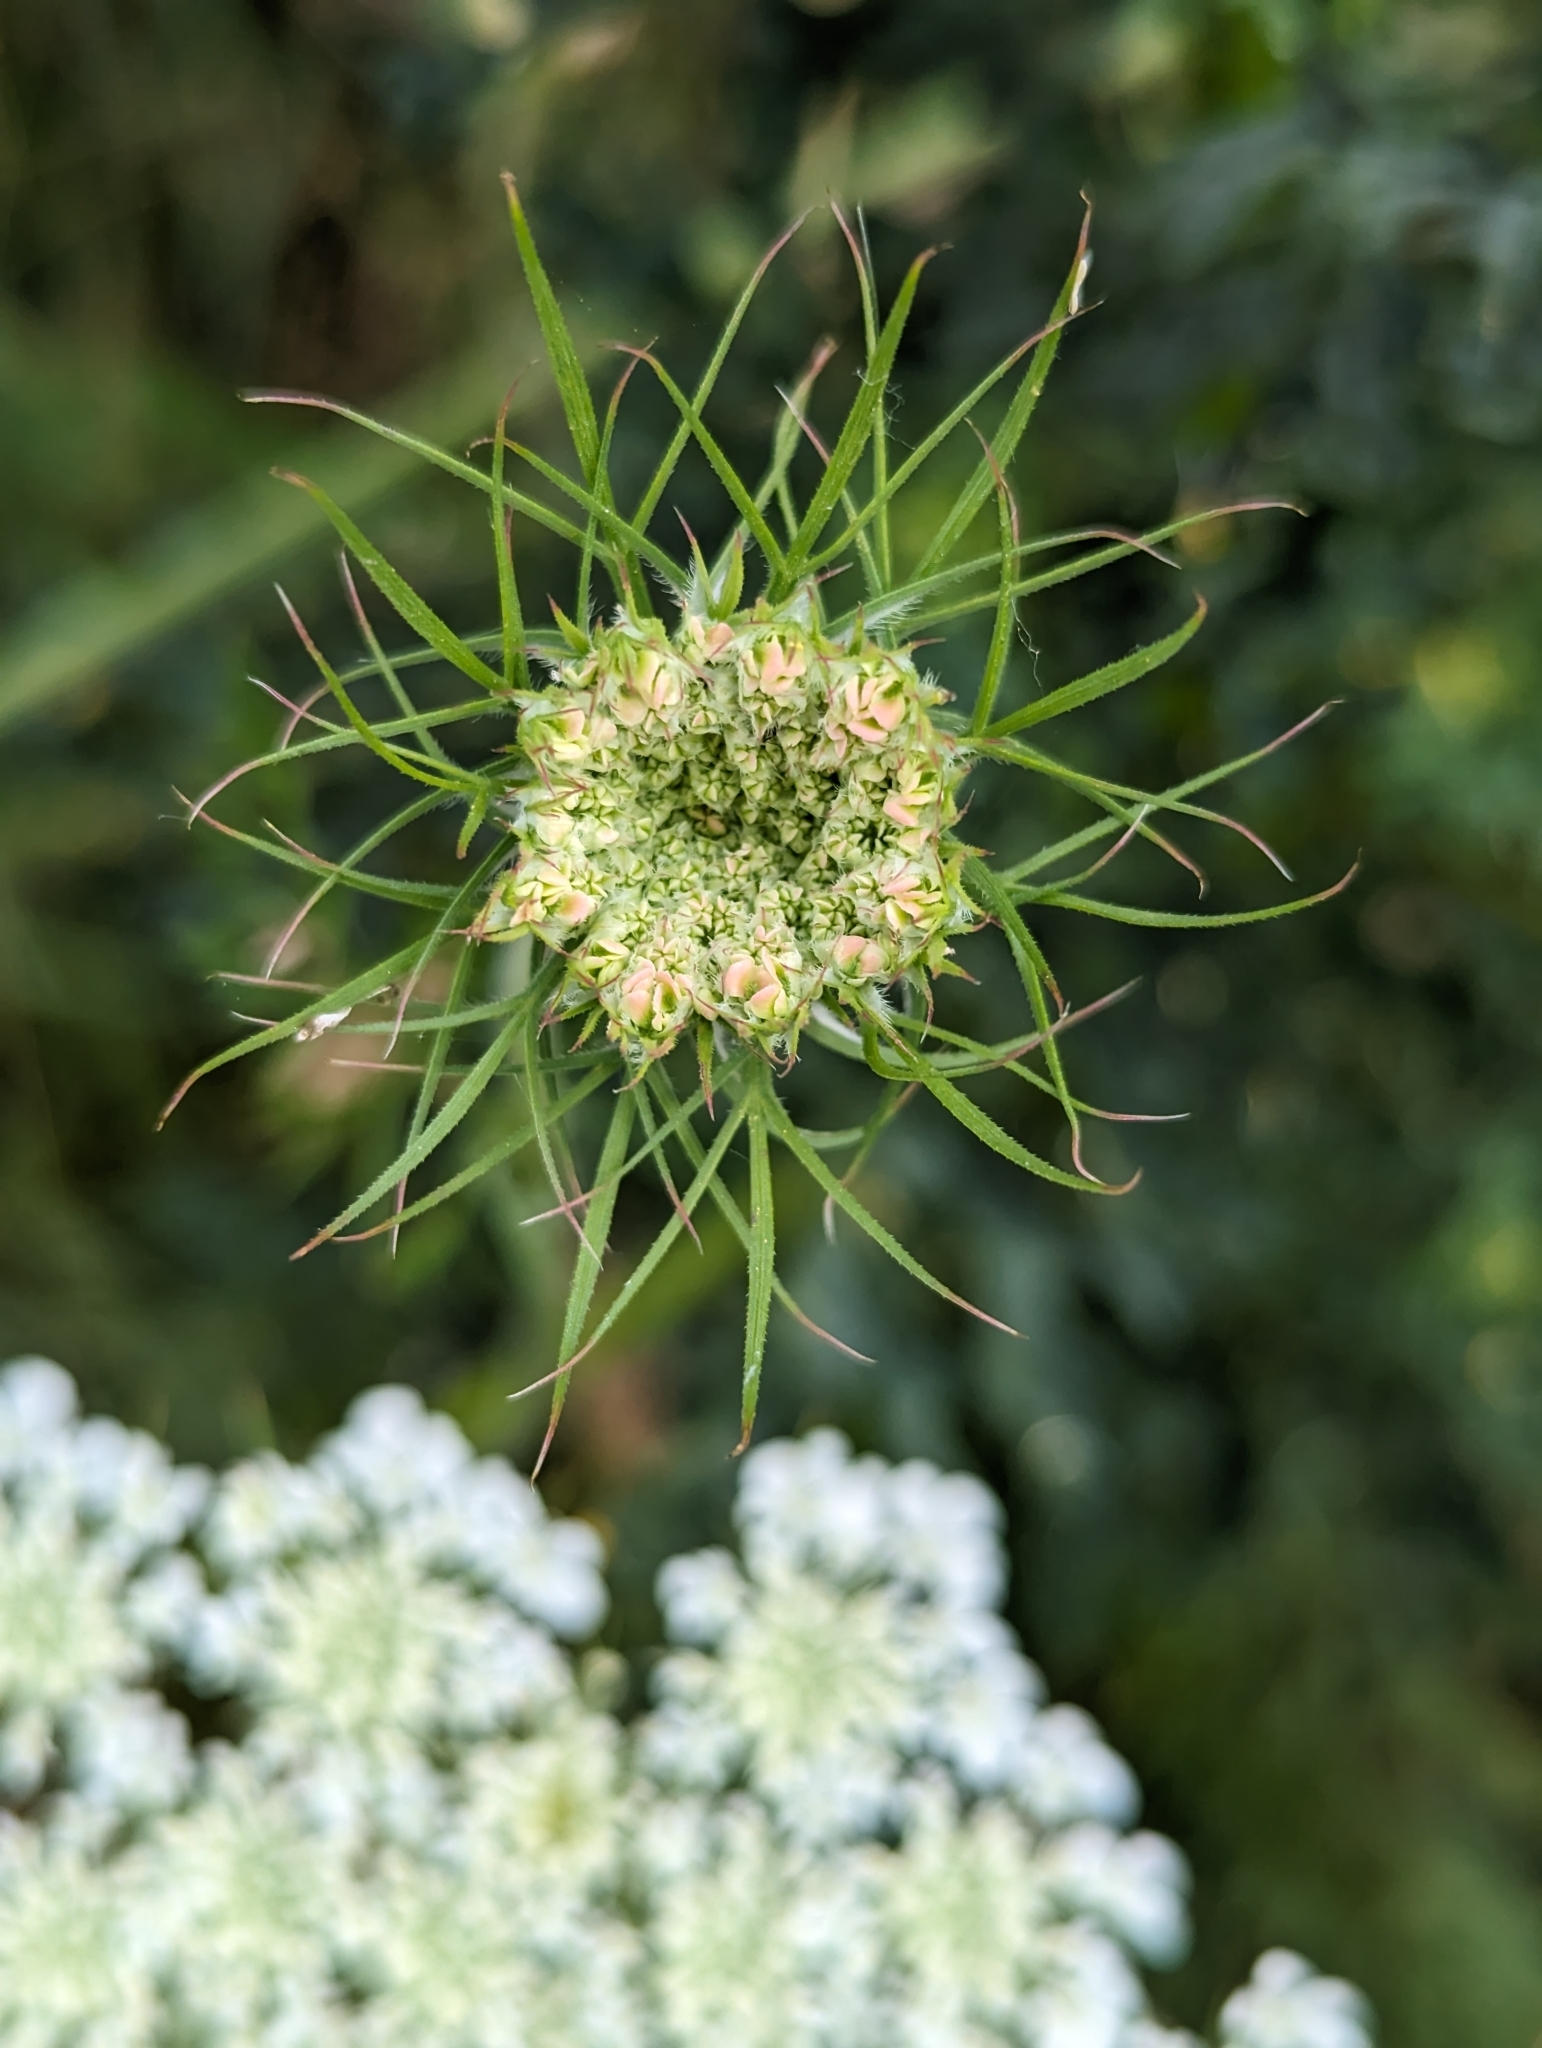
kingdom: Plantae
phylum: Tracheophyta
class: Magnoliopsida
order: Apiales
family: Apiaceae
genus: Daucus
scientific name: Daucus carota
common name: Wild carrot
